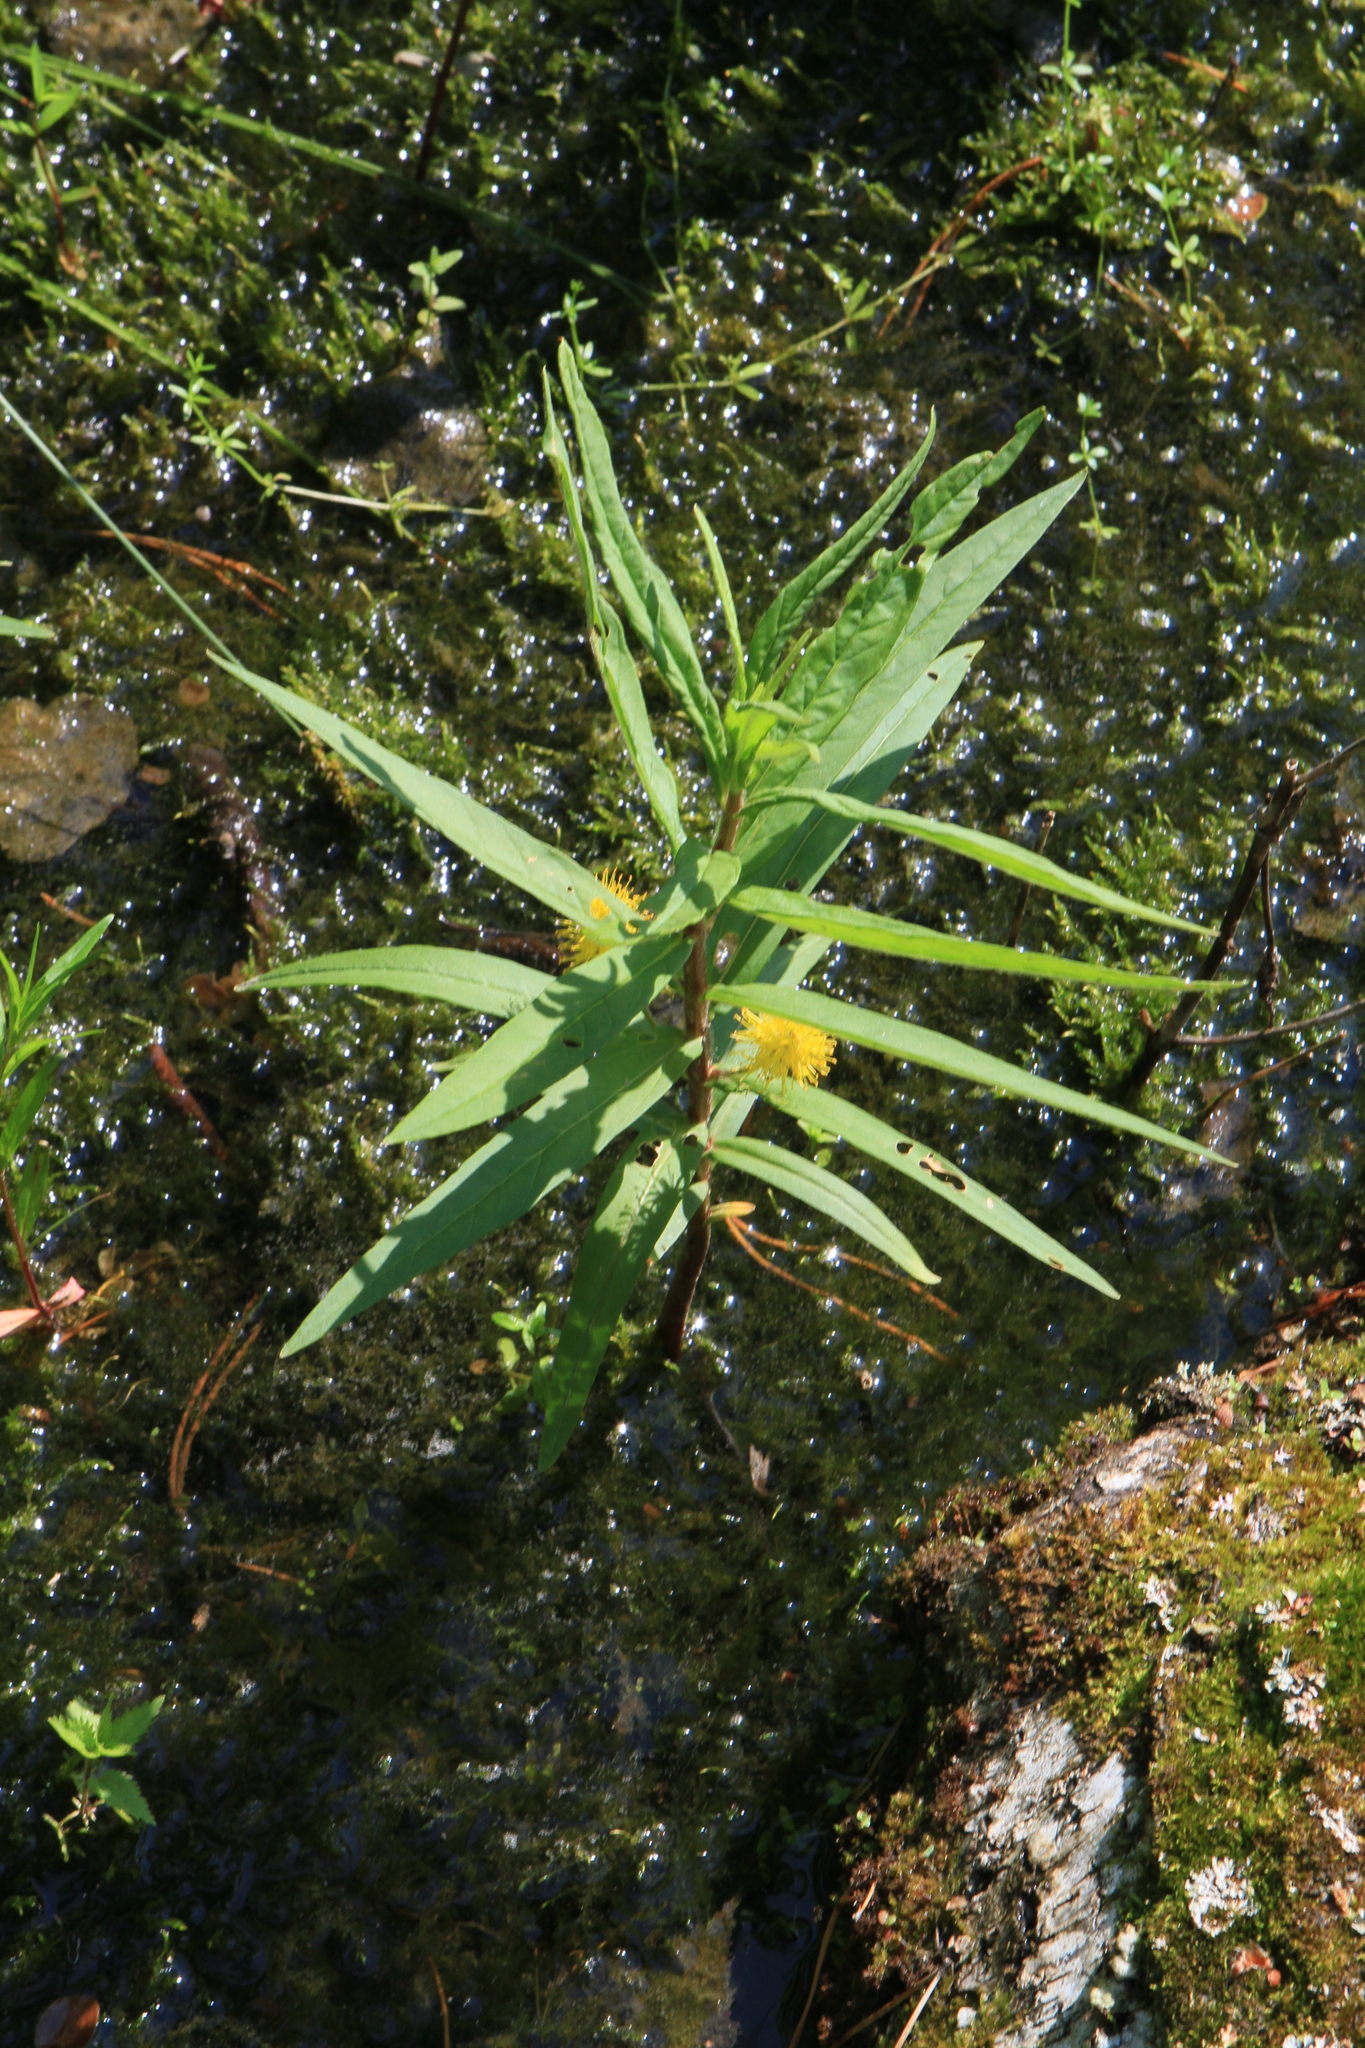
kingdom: Plantae
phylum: Tracheophyta
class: Magnoliopsida
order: Ericales
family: Primulaceae
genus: Lysimachia
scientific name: Lysimachia thyrsiflora
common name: Tufted loosestrife
